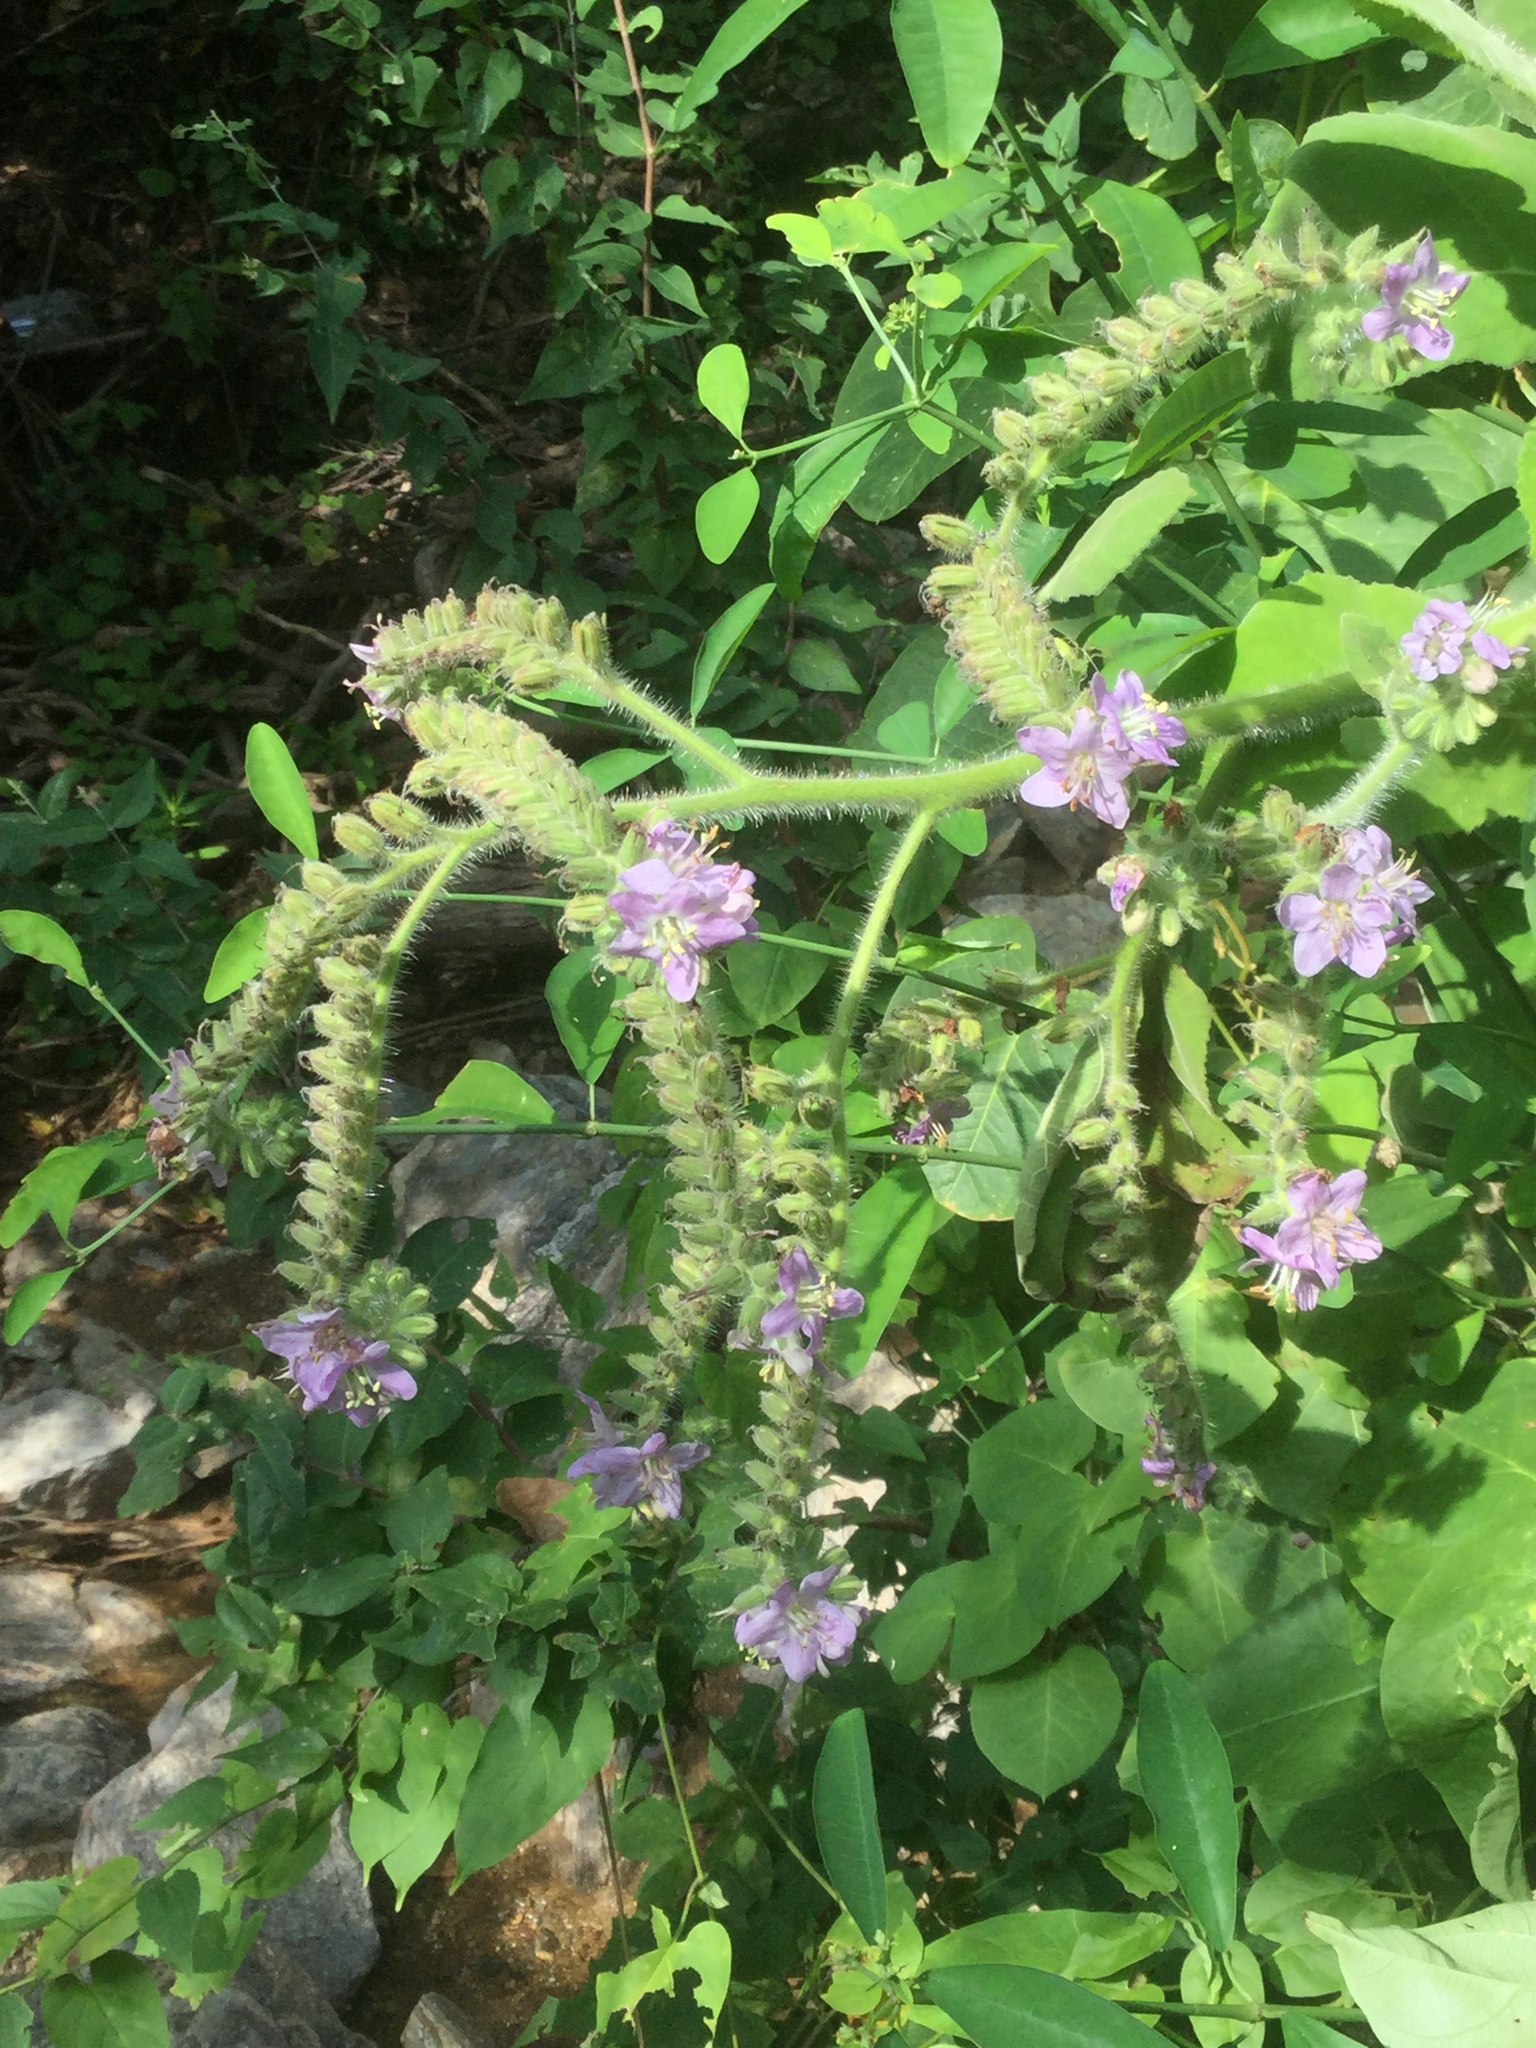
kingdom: Plantae
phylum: Tracheophyta
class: Magnoliopsida
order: Boraginales
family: Namaceae
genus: Wigandia
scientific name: Wigandia urens
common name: Caracus wigandia
